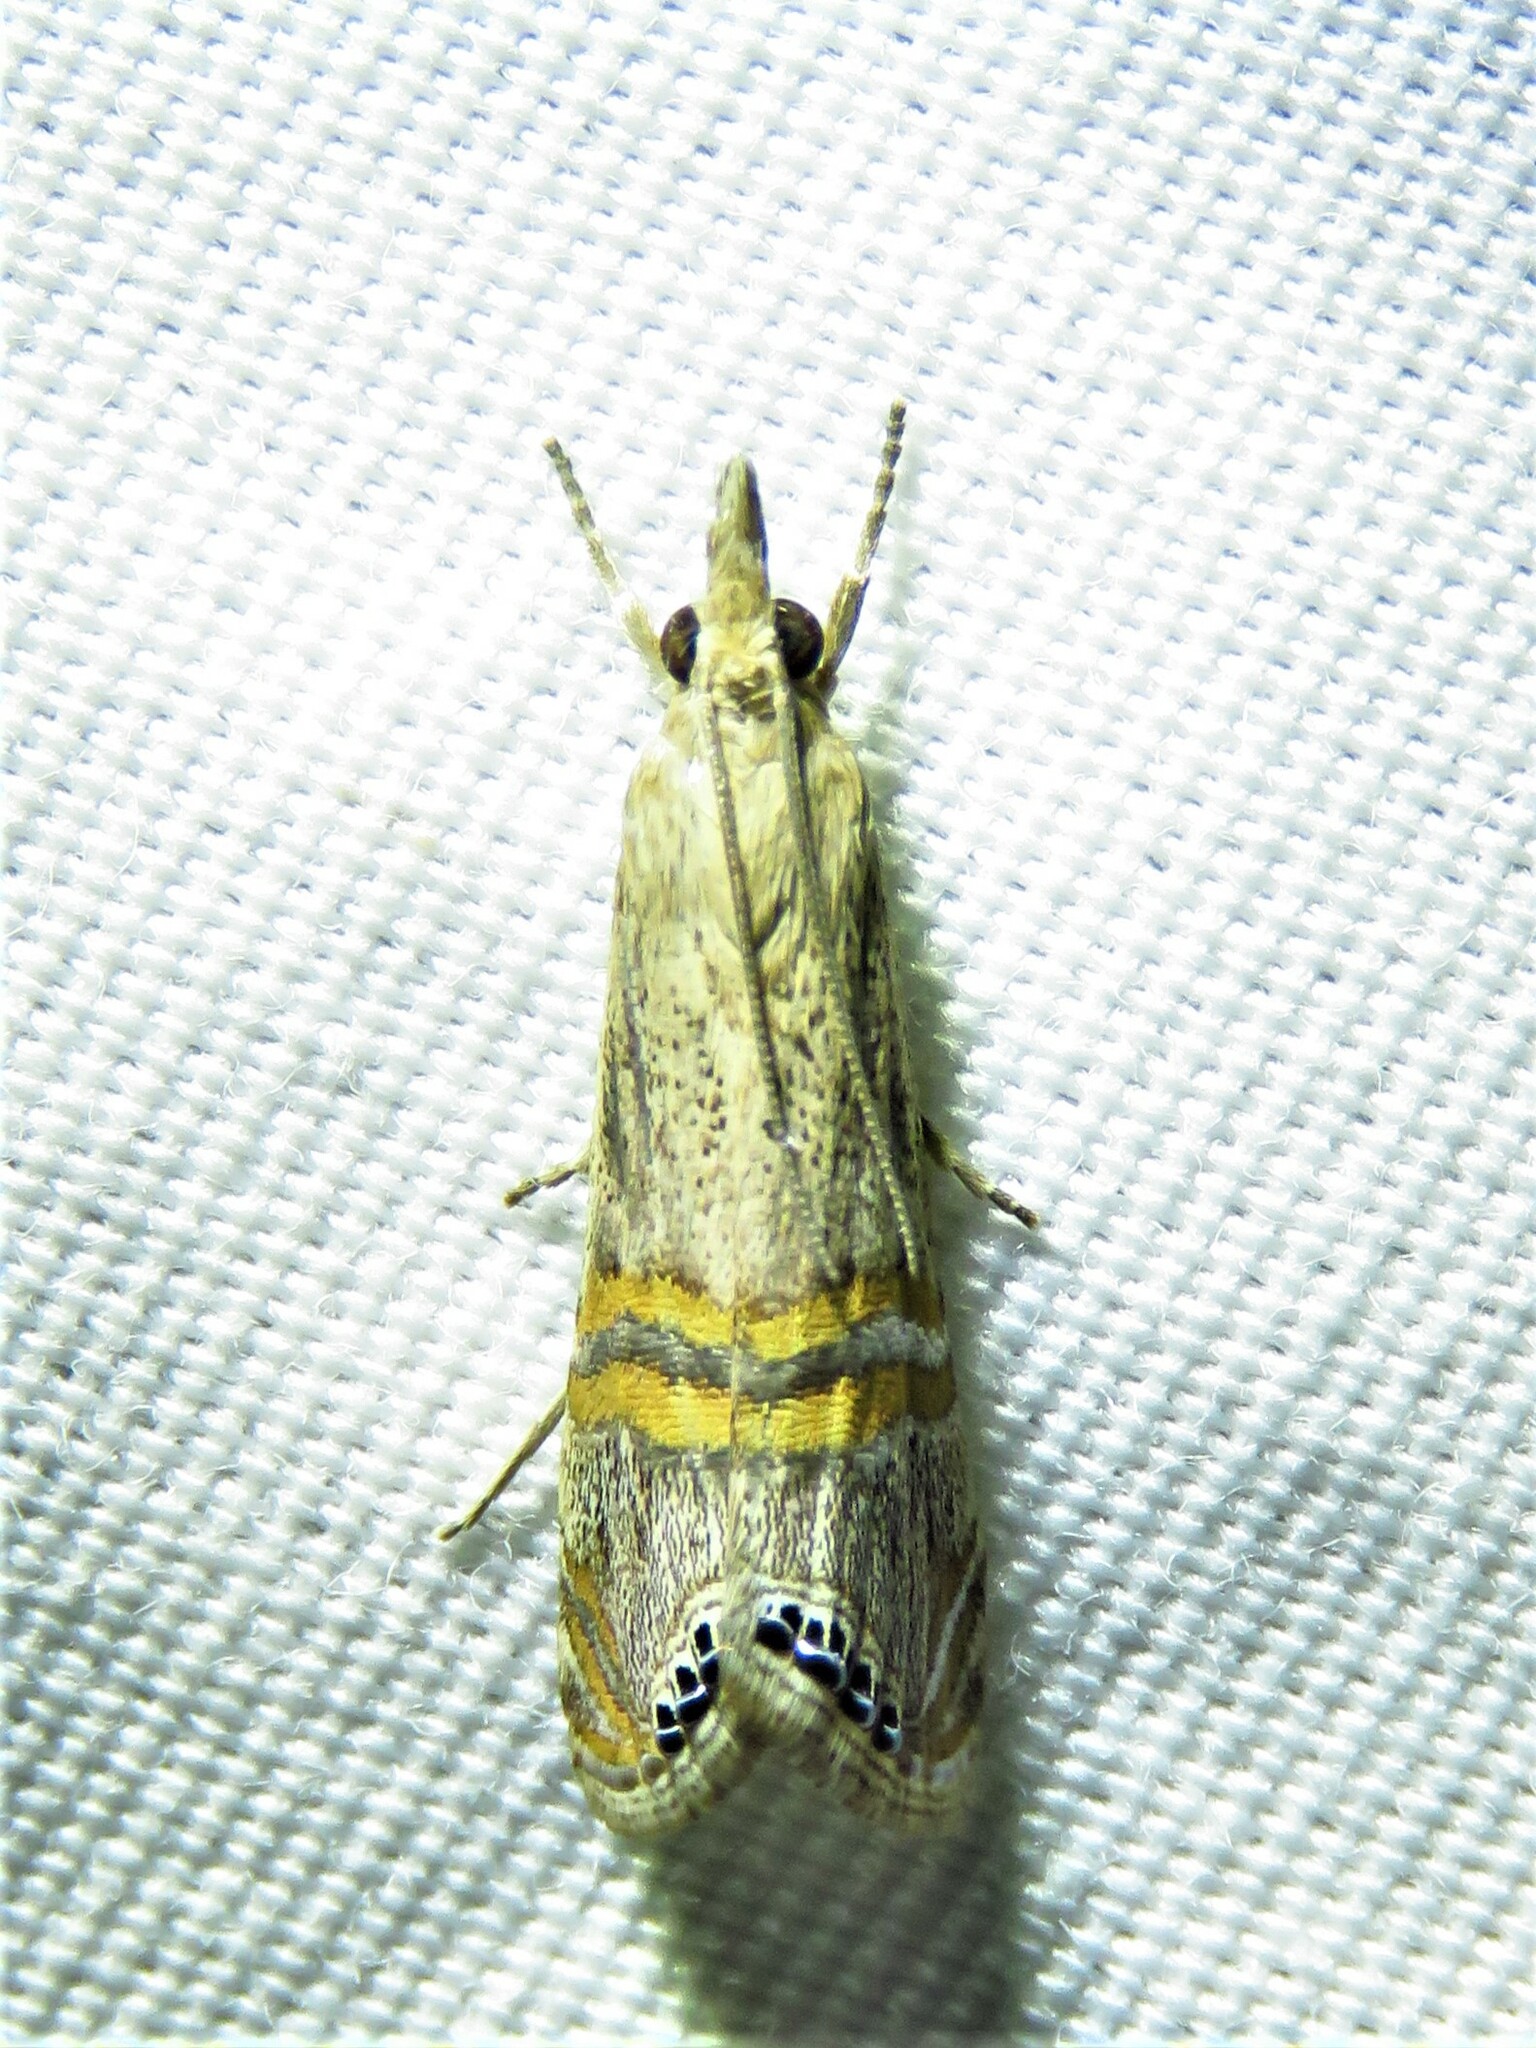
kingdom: Animalia
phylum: Arthropoda
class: Insecta
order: Lepidoptera
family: Crambidae
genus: Euchromius
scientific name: Euchromius ocellea
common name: Necklace veneer moth
